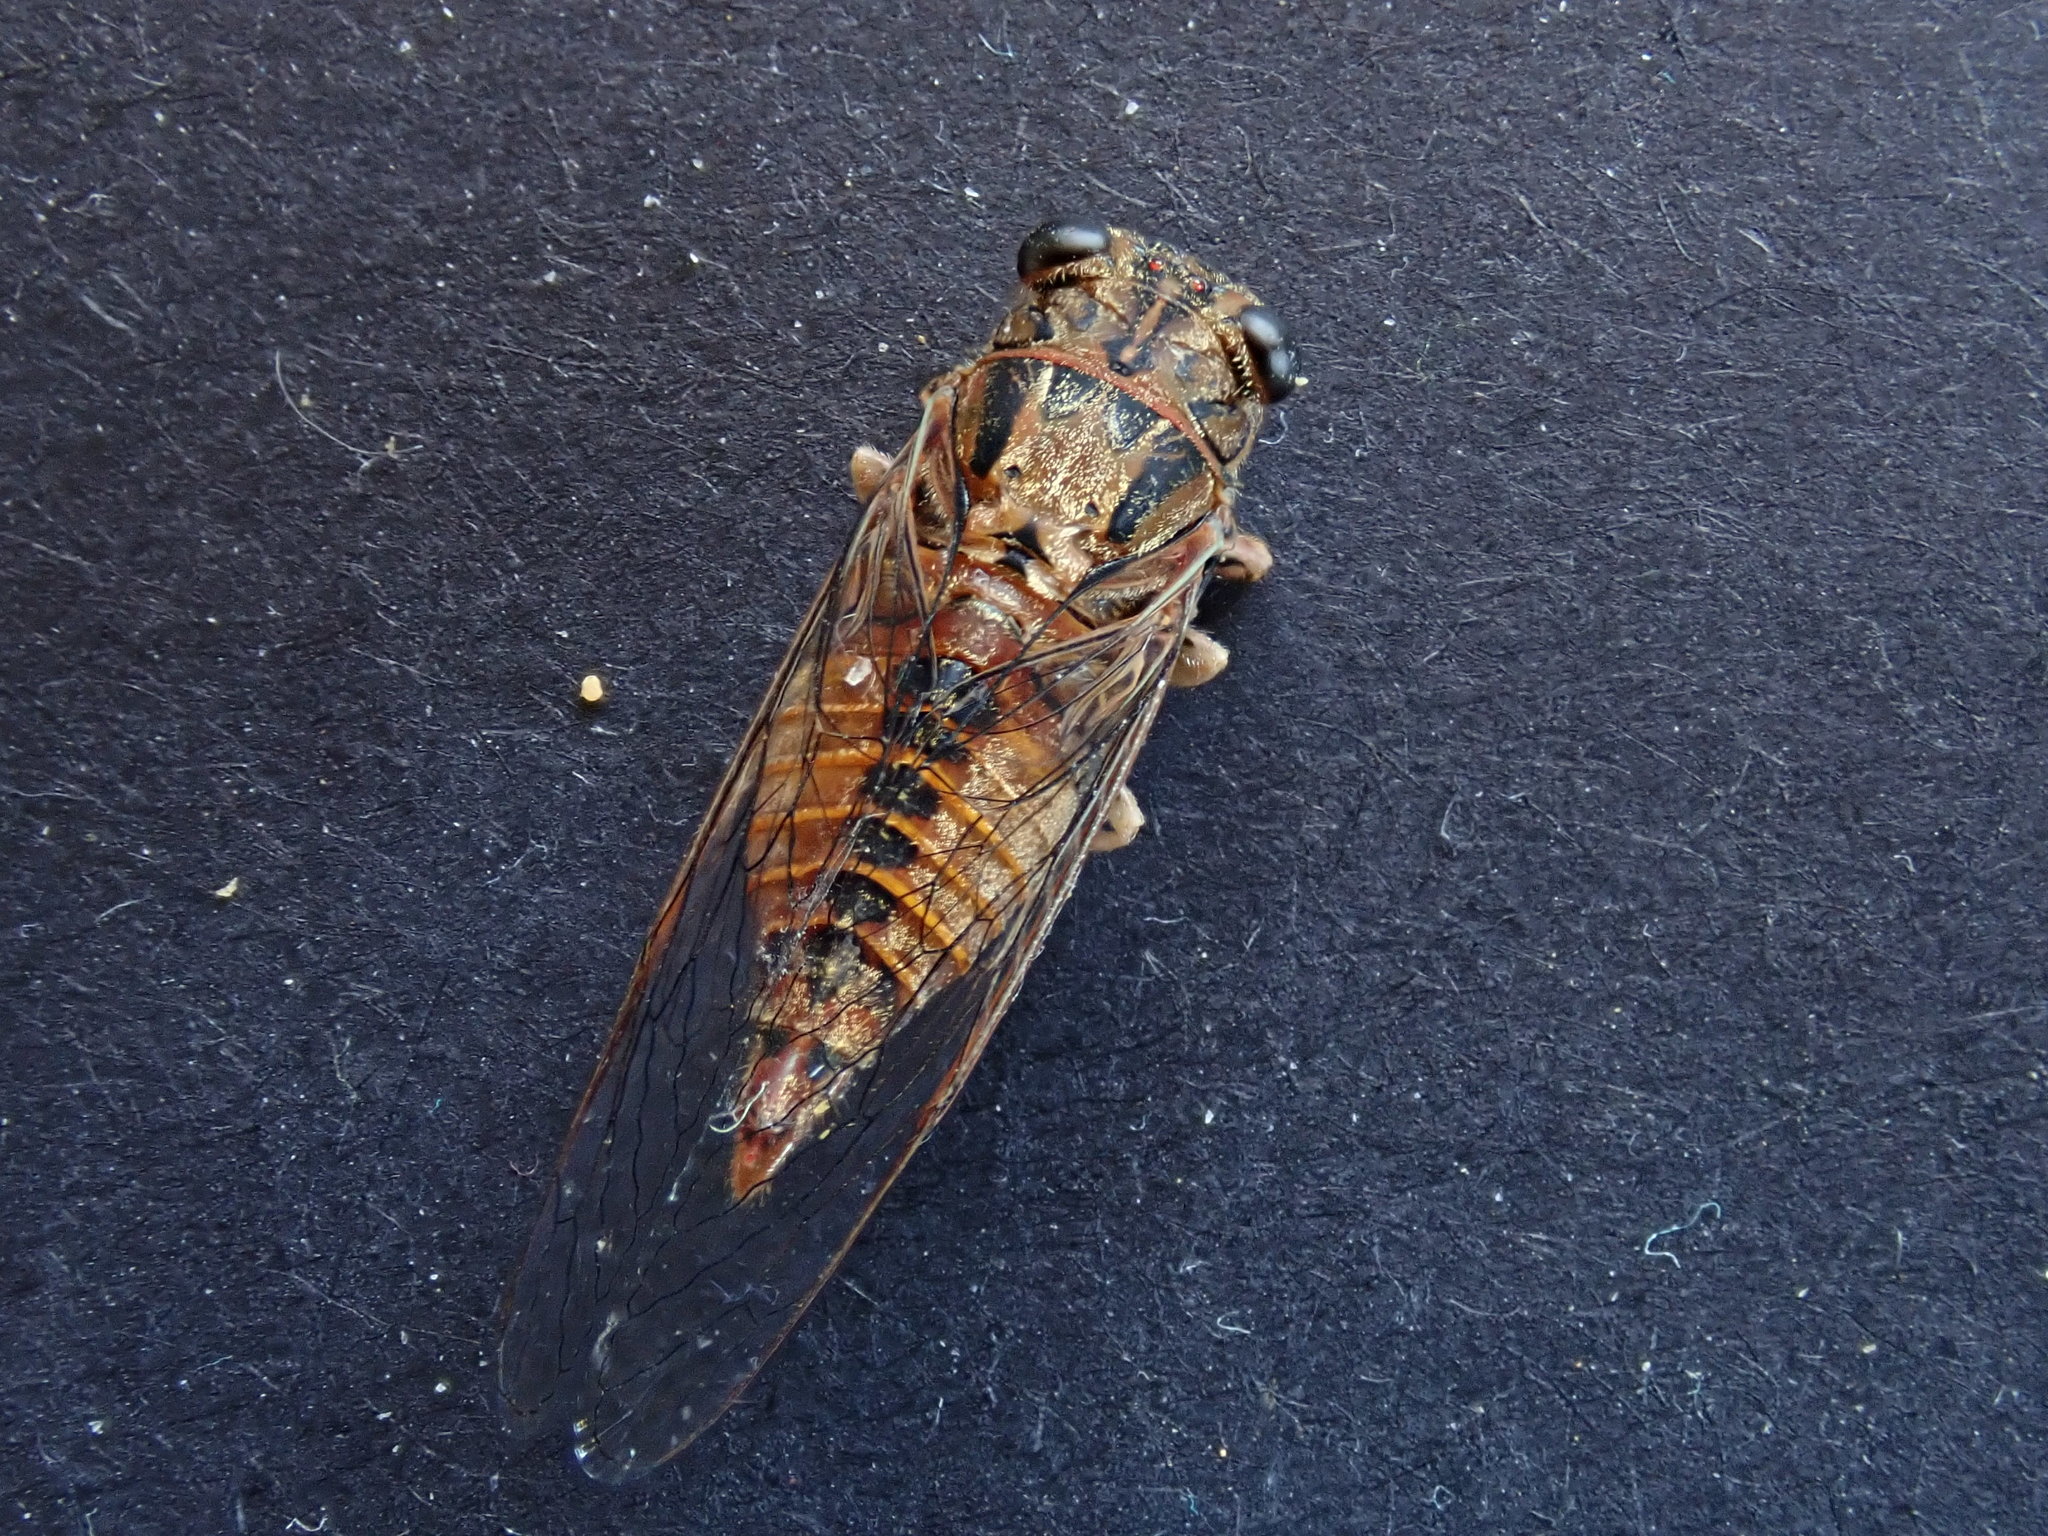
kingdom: Animalia
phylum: Arthropoda
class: Insecta
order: Hemiptera
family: Cicadidae
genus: Yoyetta
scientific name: Yoyetta celis
